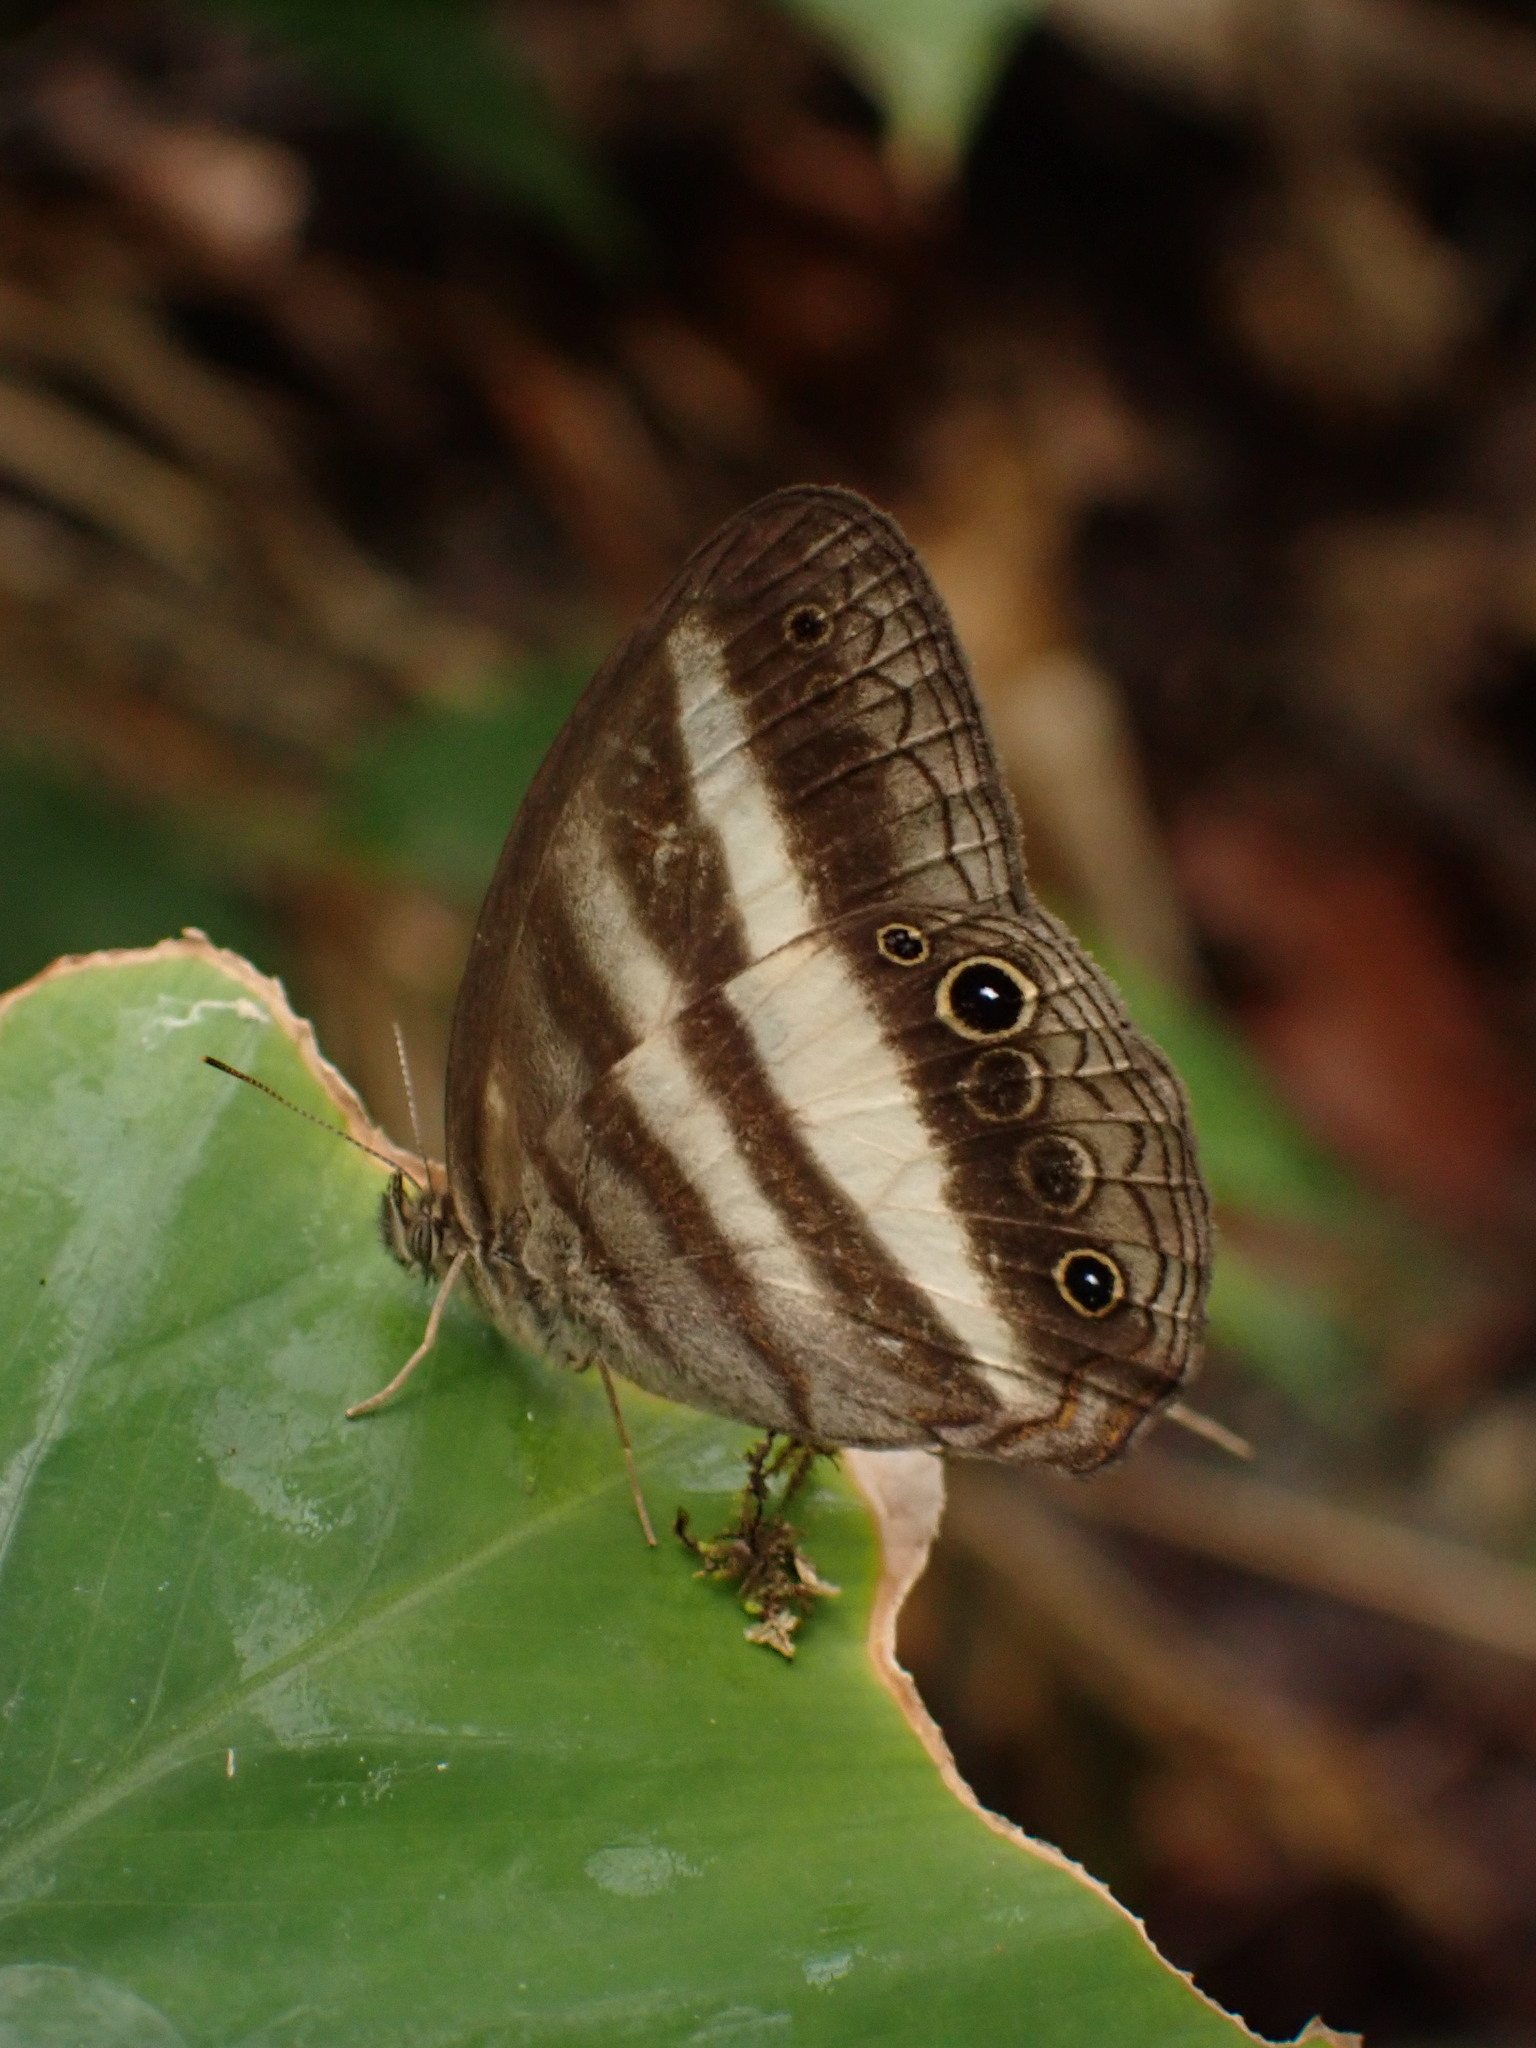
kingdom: Animalia
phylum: Arthropoda
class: Insecta
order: Lepidoptera
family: Nymphalidae
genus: Pareuptychia
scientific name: Pareuptychia hesione
